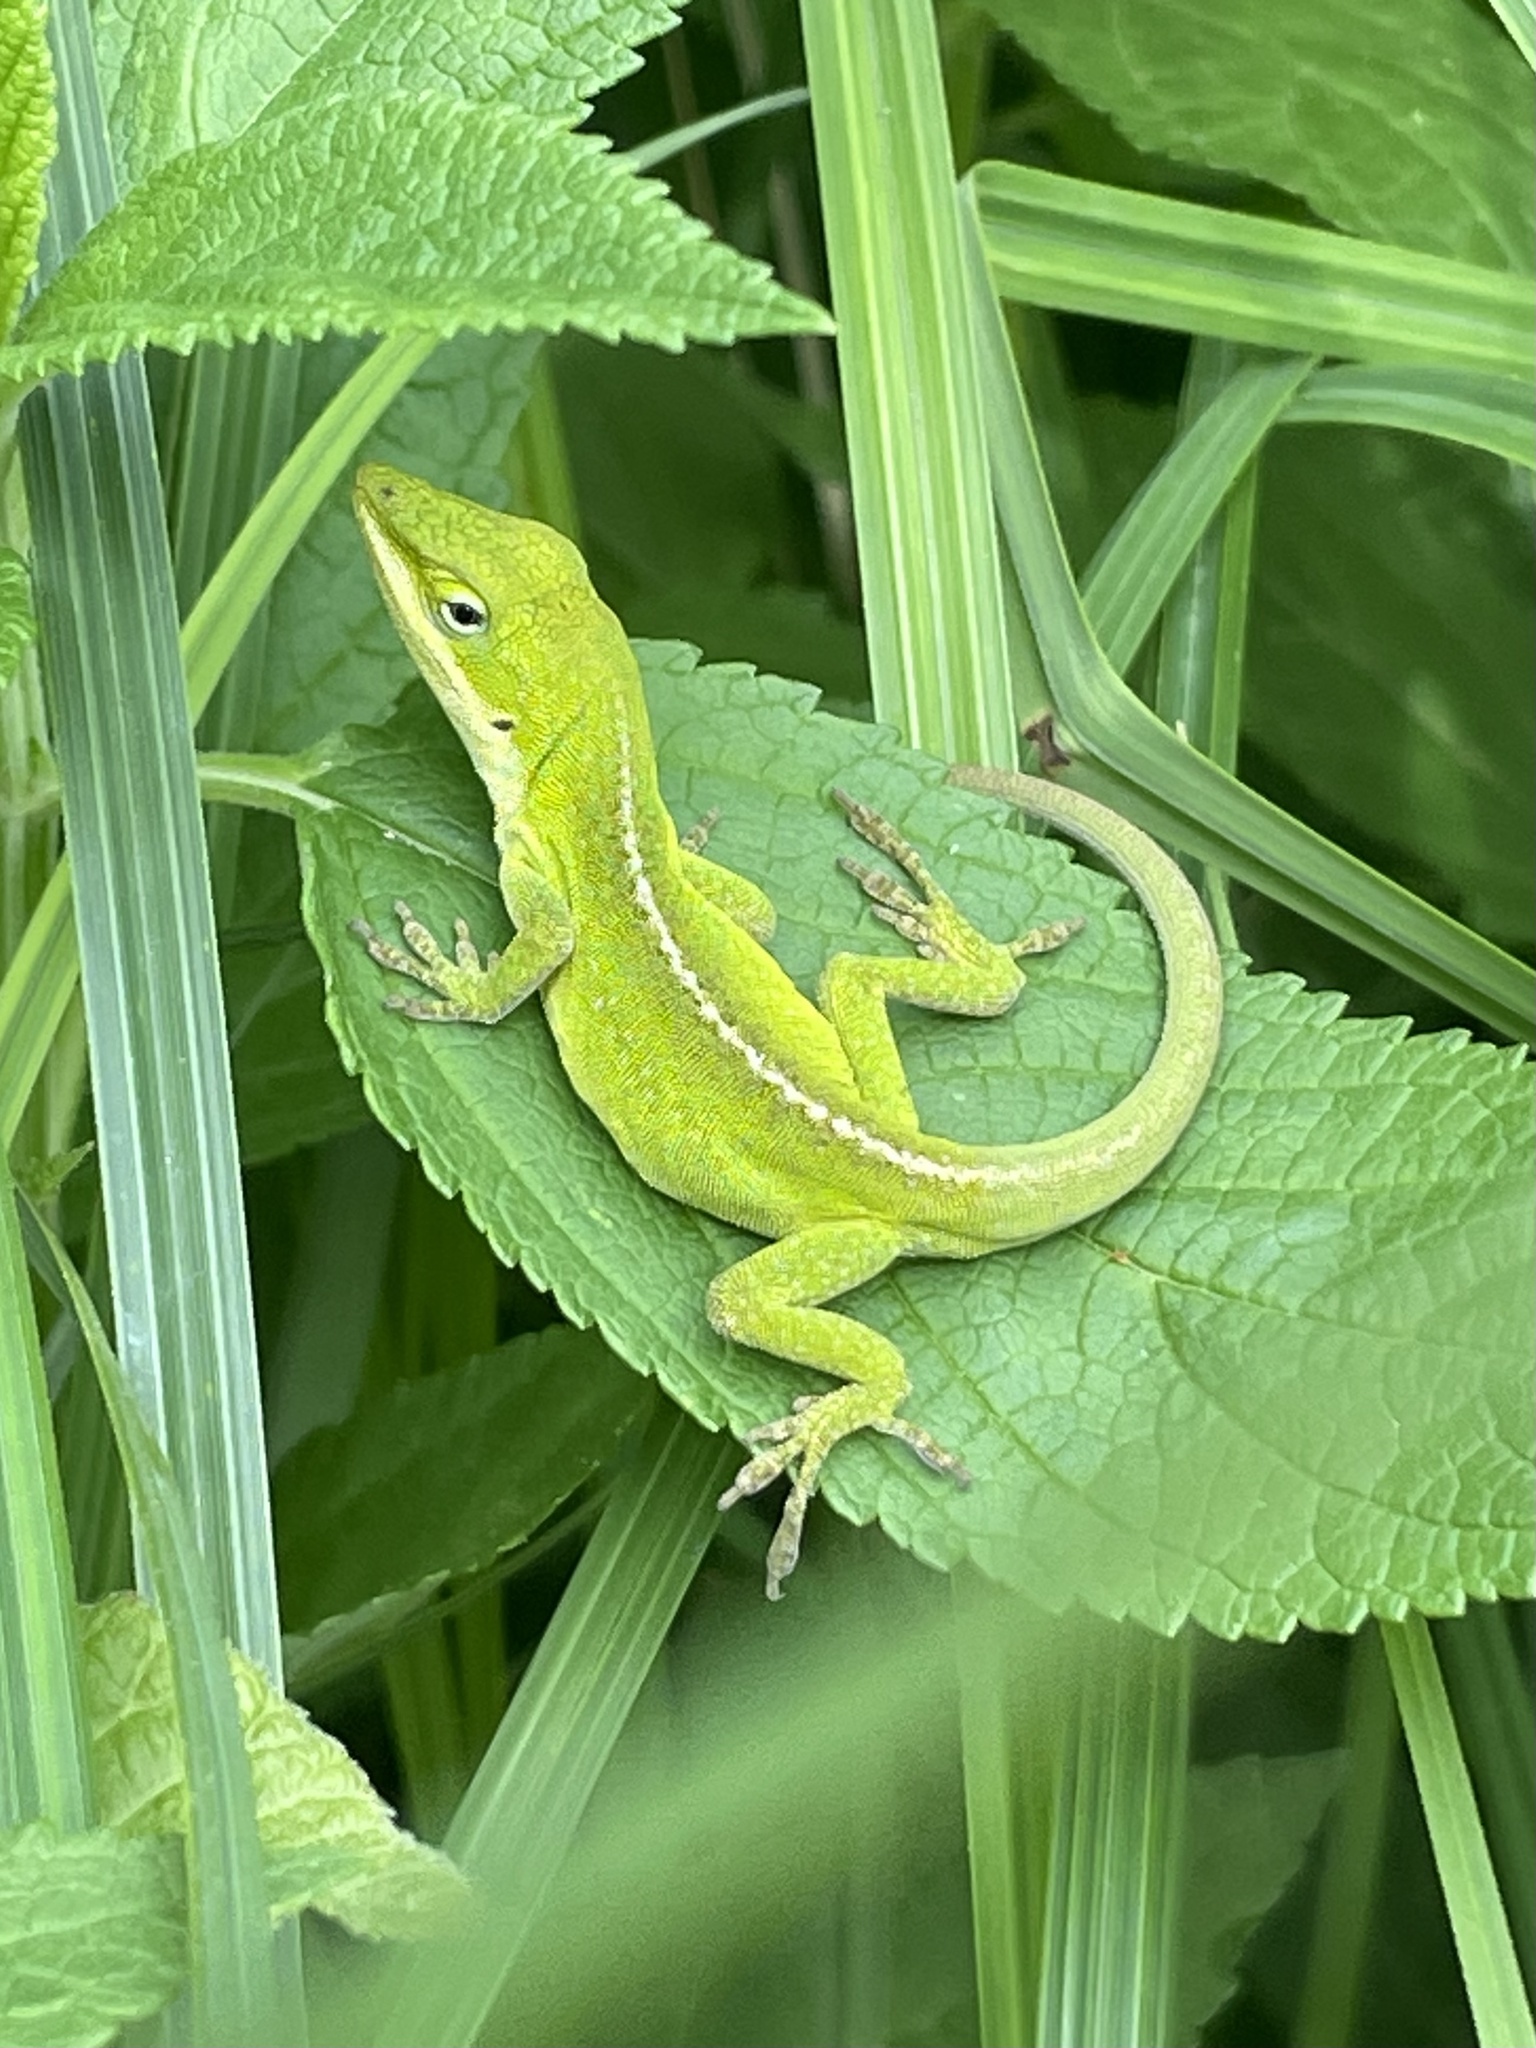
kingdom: Animalia
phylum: Chordata
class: Squamata
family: Dactyloidae
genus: Anolis
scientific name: Anolis carolinensis
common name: Green anole
